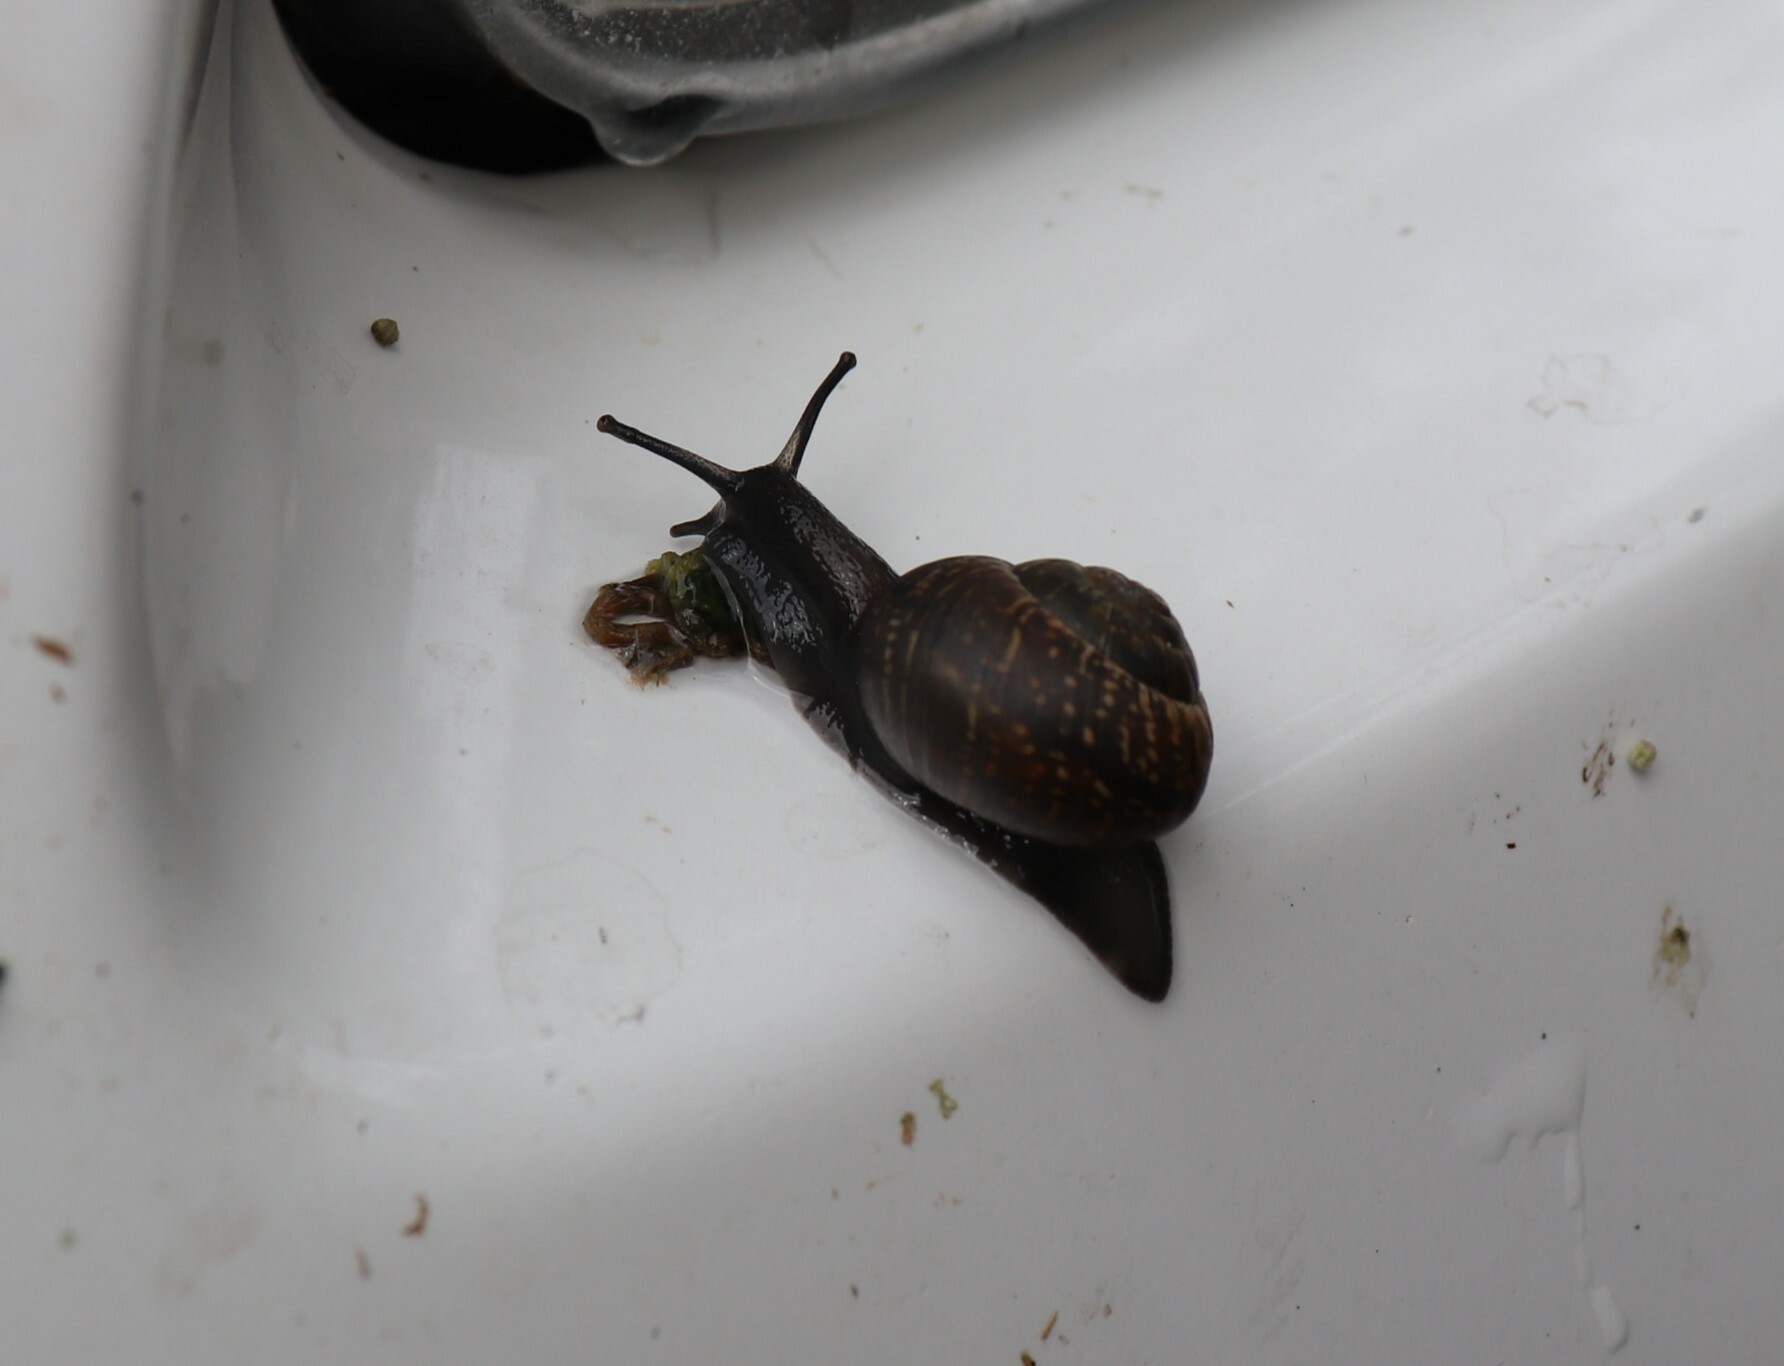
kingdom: Animalia
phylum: Mollusca
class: Gastropoda
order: Stylommatophora
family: Helicidae
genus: Arianta
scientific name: Arianta arbustorum
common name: Copse snail
